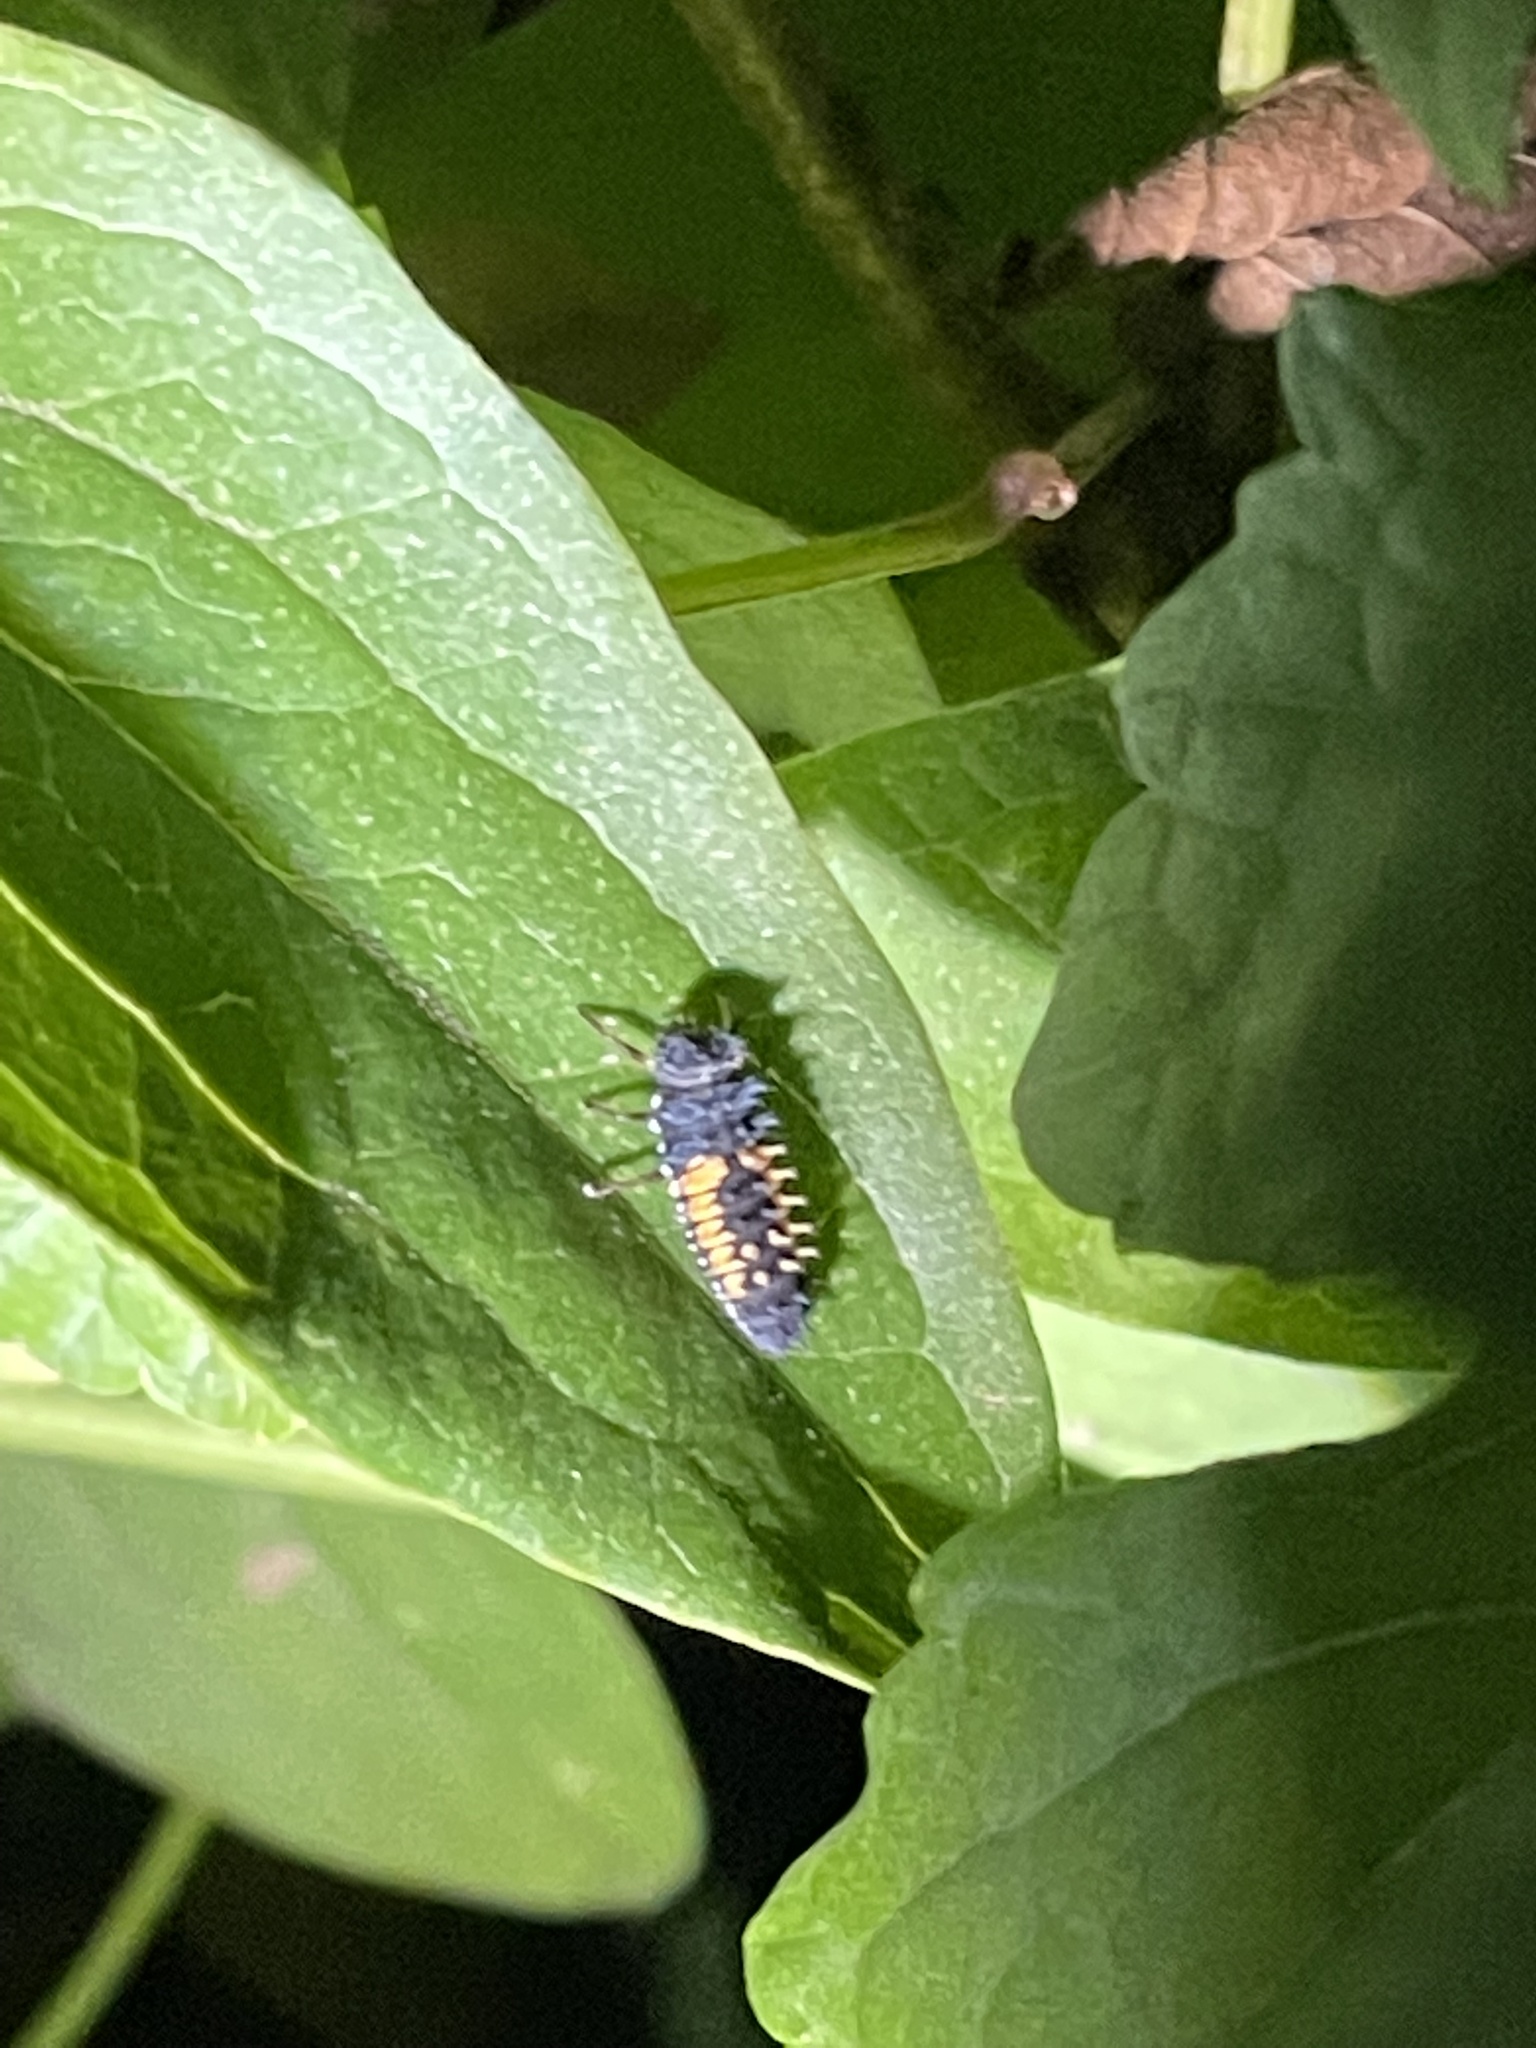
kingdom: Animalia
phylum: Arthropoda
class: Insecta
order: Coleoptera
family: Coccinellidae
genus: Harmonia
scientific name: Harmonia axyridis
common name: Harlequin ladybird
